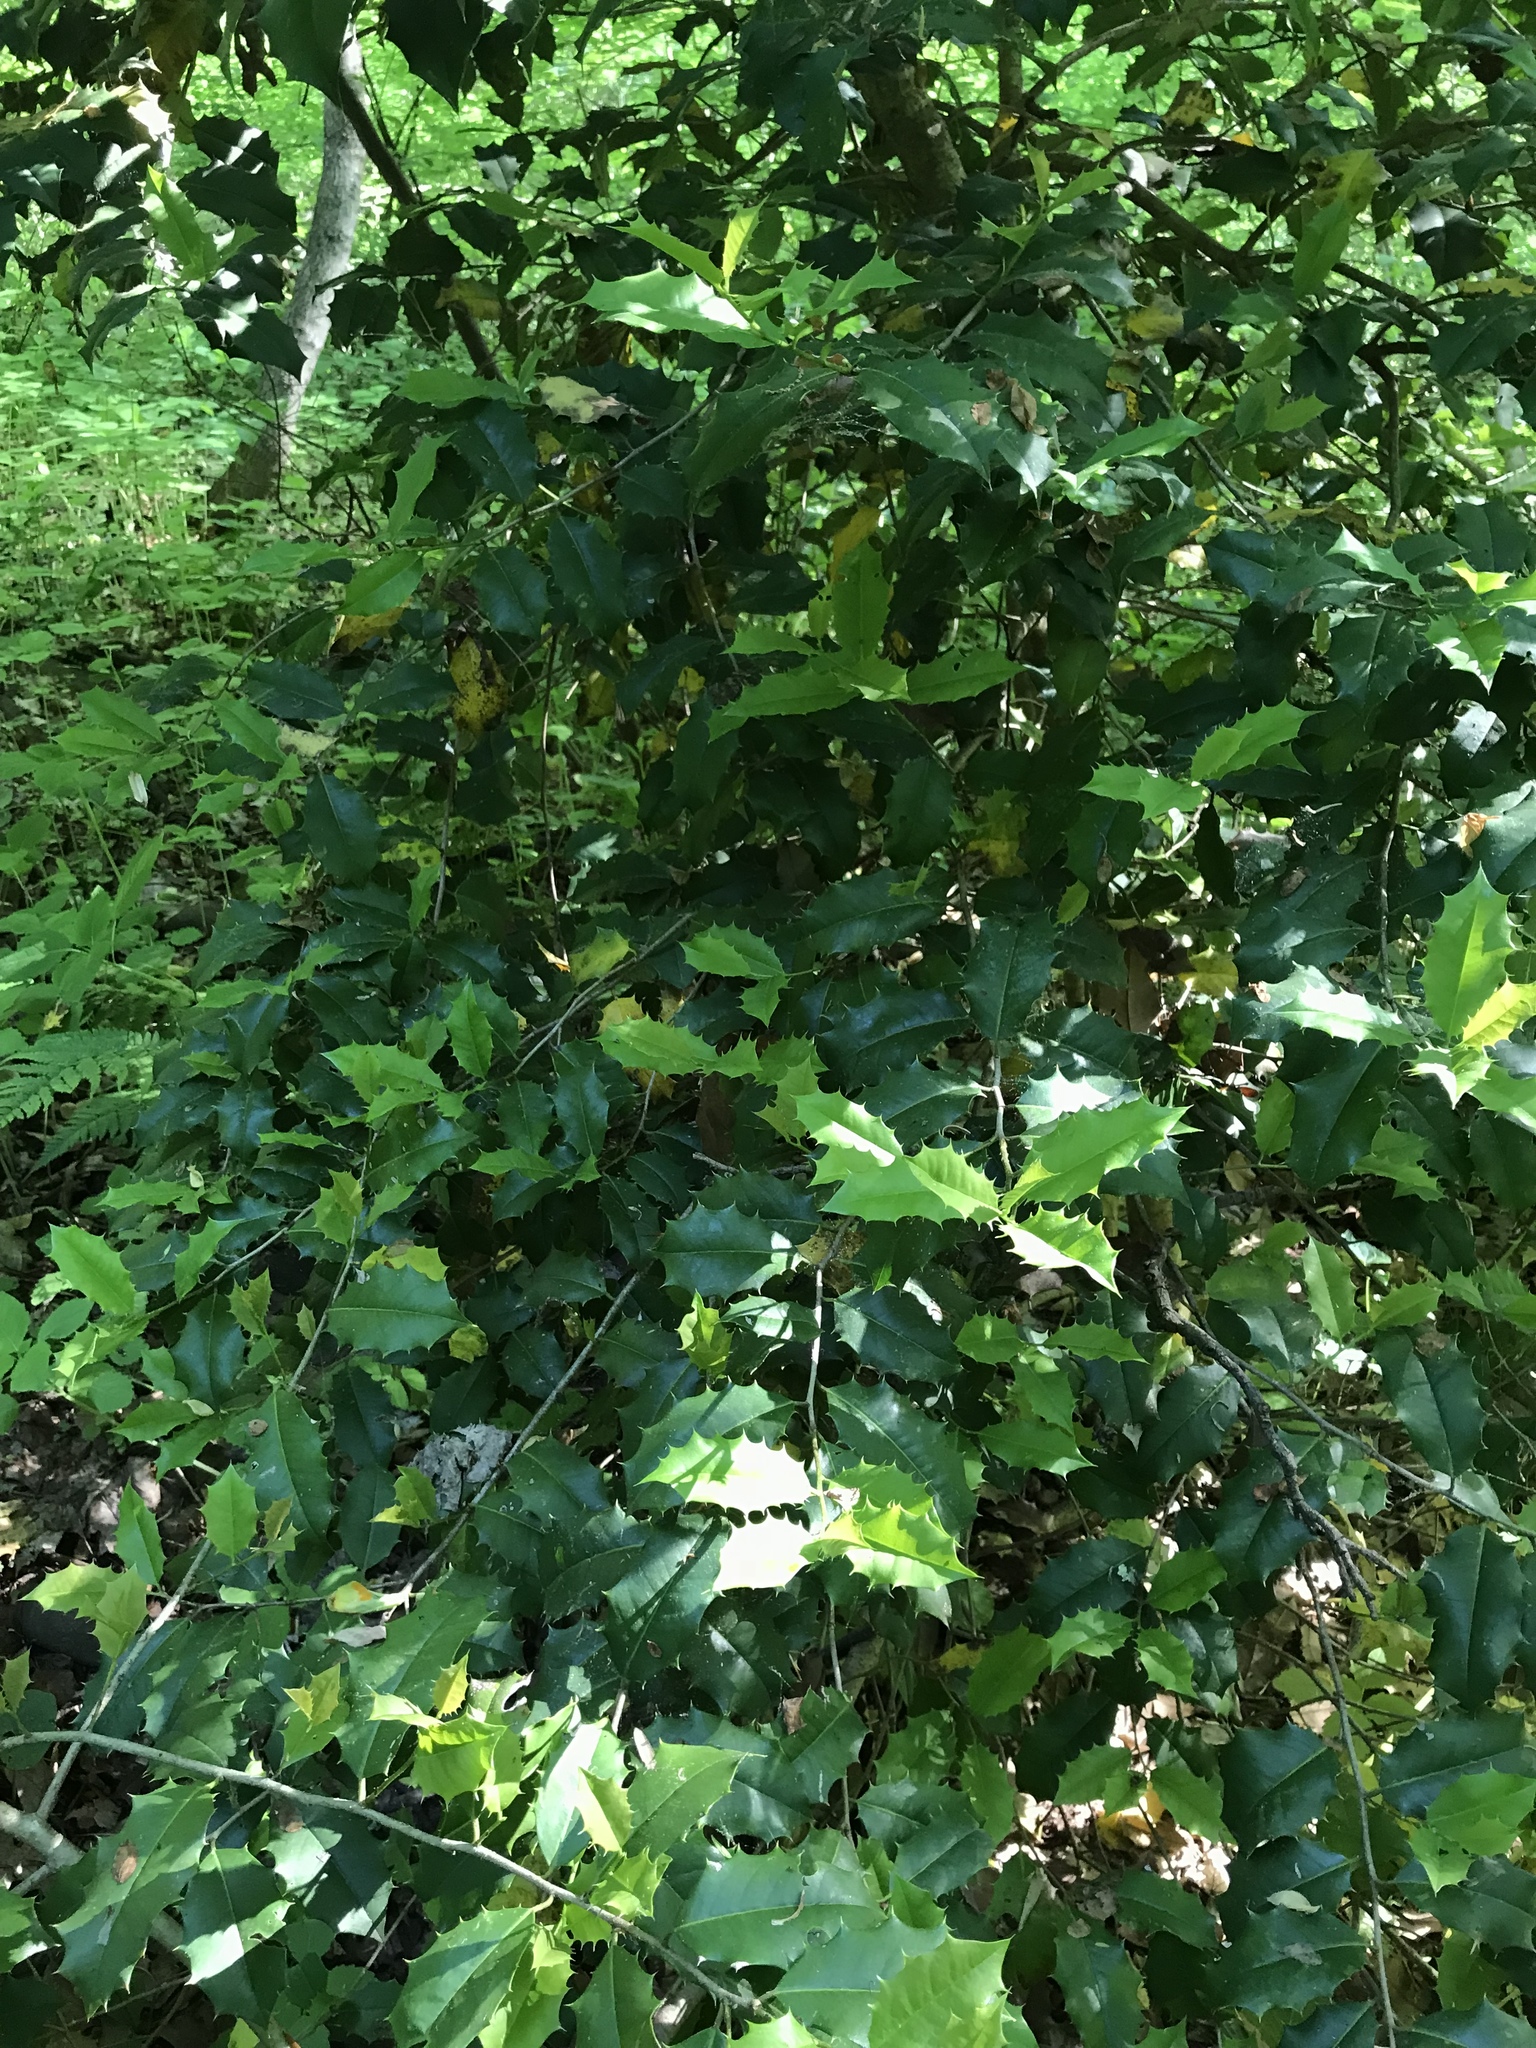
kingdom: Plantae
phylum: Tracheophyta
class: Magnoliopsida
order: Aquifoliales
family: Aquifoliaceae
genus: Ilex
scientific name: Ilex opaca
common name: American holly
